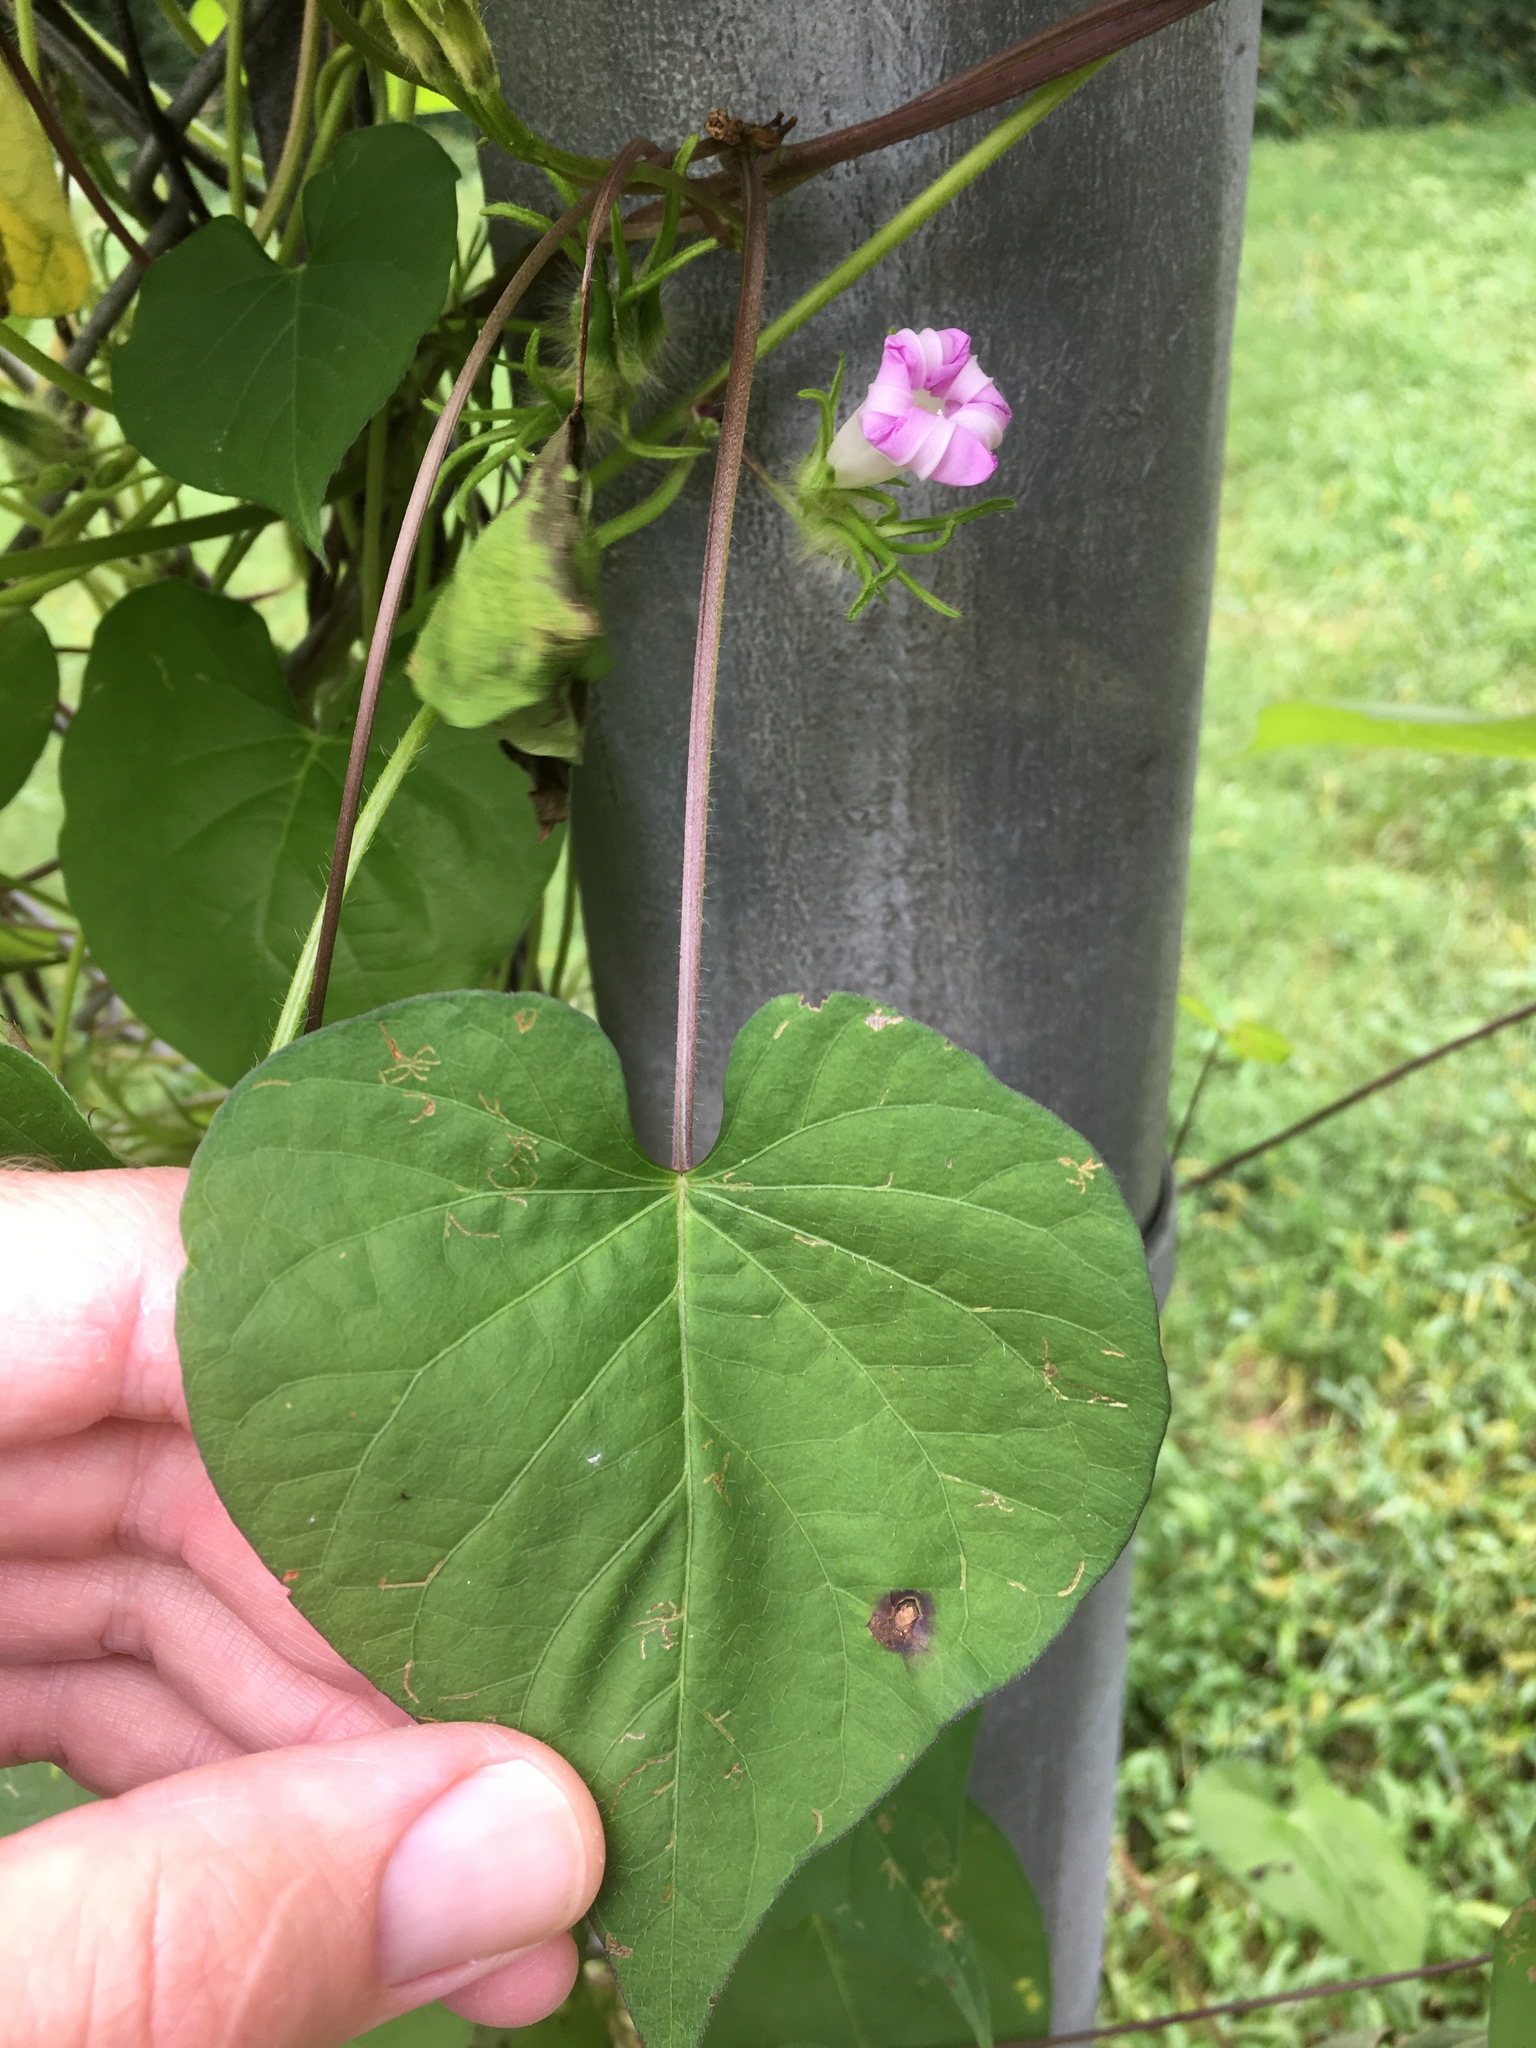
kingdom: Plantae
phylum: Tracheophyta
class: Magnoliopsida
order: Solanales
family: Convolvulaceae
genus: Ipomoea
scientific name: Ipomoea purpurea
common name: Common morning-glory
